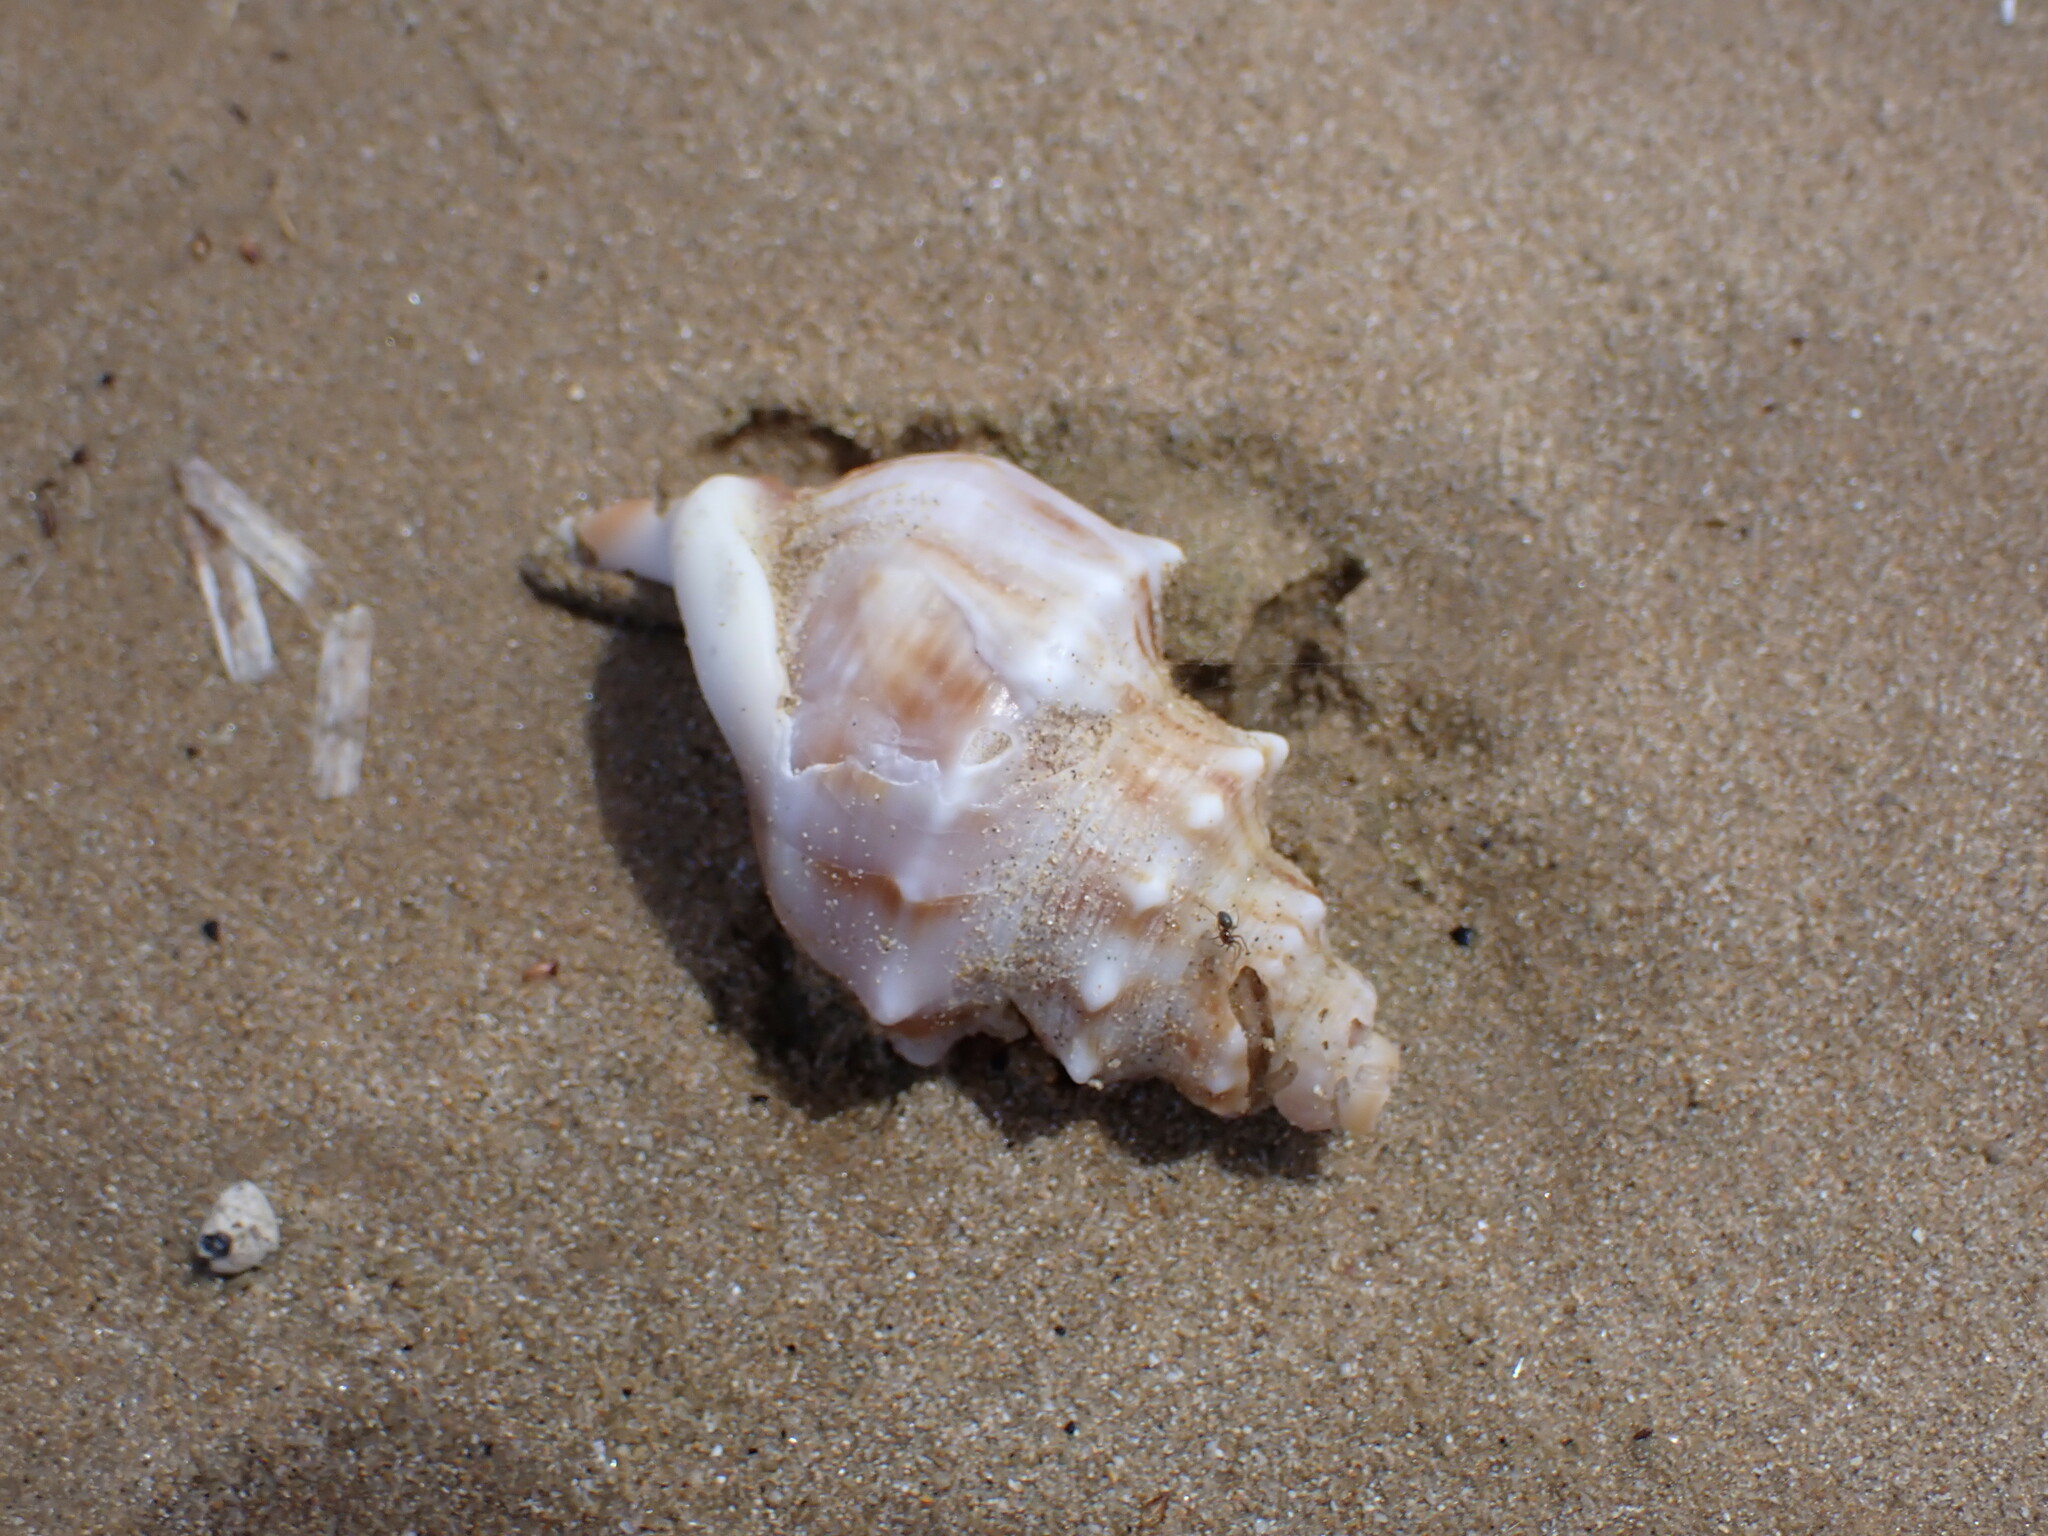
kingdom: Animalia
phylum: Mollusca
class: Gastropoda
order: Littorinimorpha
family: Struthiolariidae
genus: Struthiolaria
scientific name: Struthiolaria papulosa
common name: Large ostrich foot
